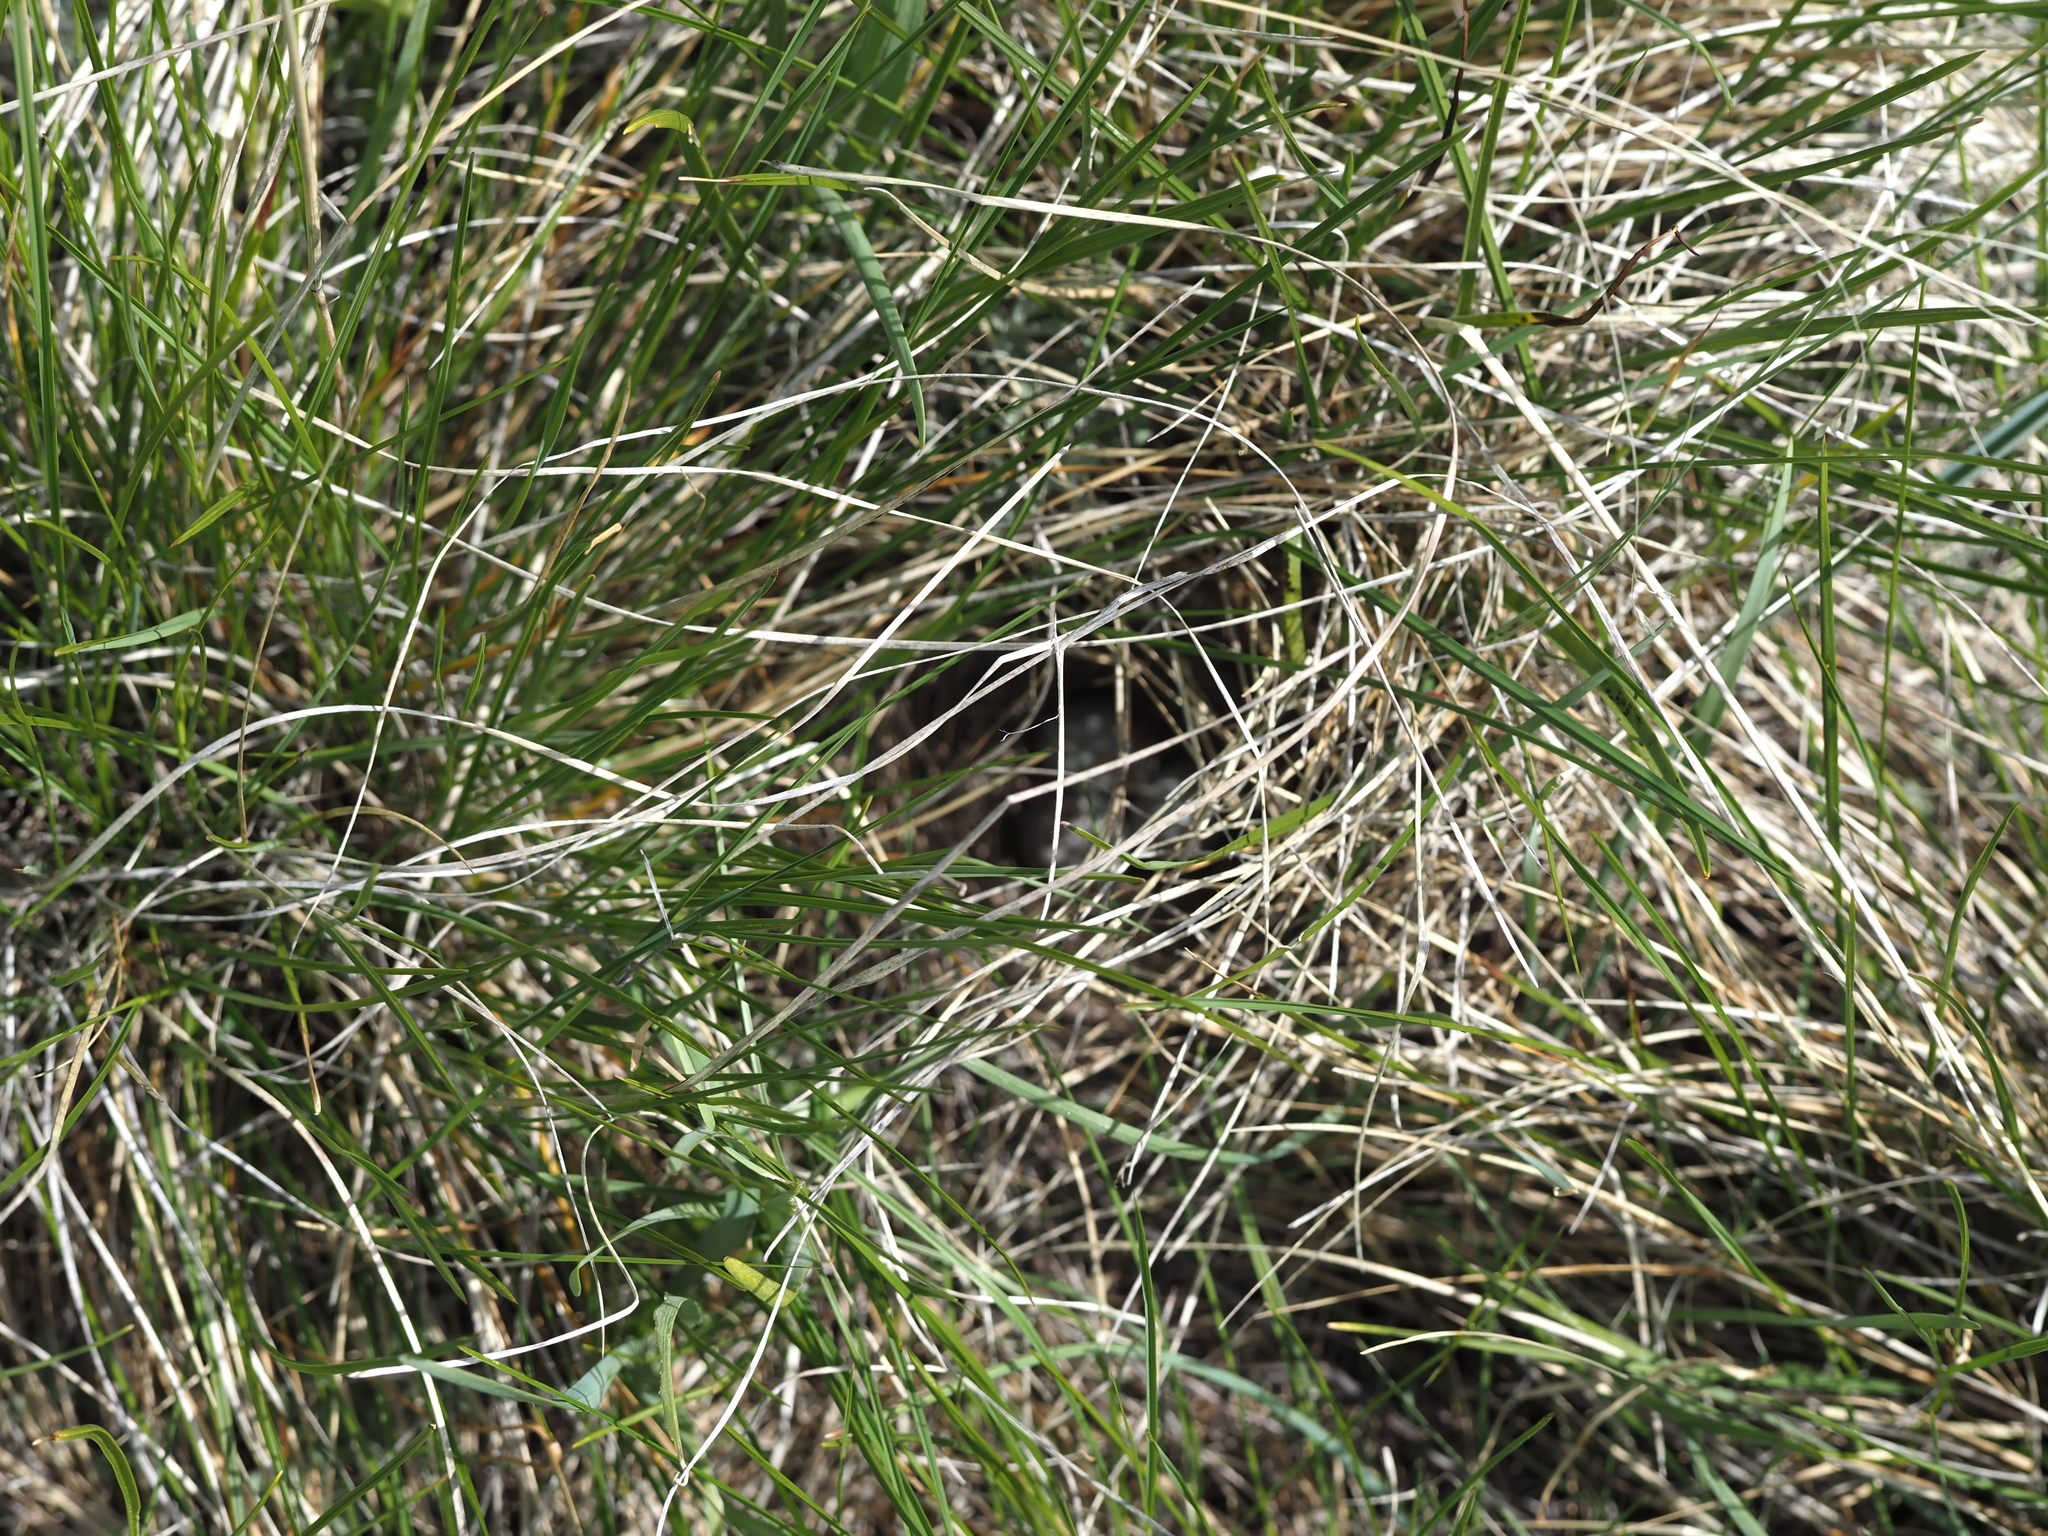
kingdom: Animalia
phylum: Chordata
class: Aves
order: Passeriformes
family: Passerellidae
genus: Pooecetes
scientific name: Pooecetes gramineus
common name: Vesper sparrow
